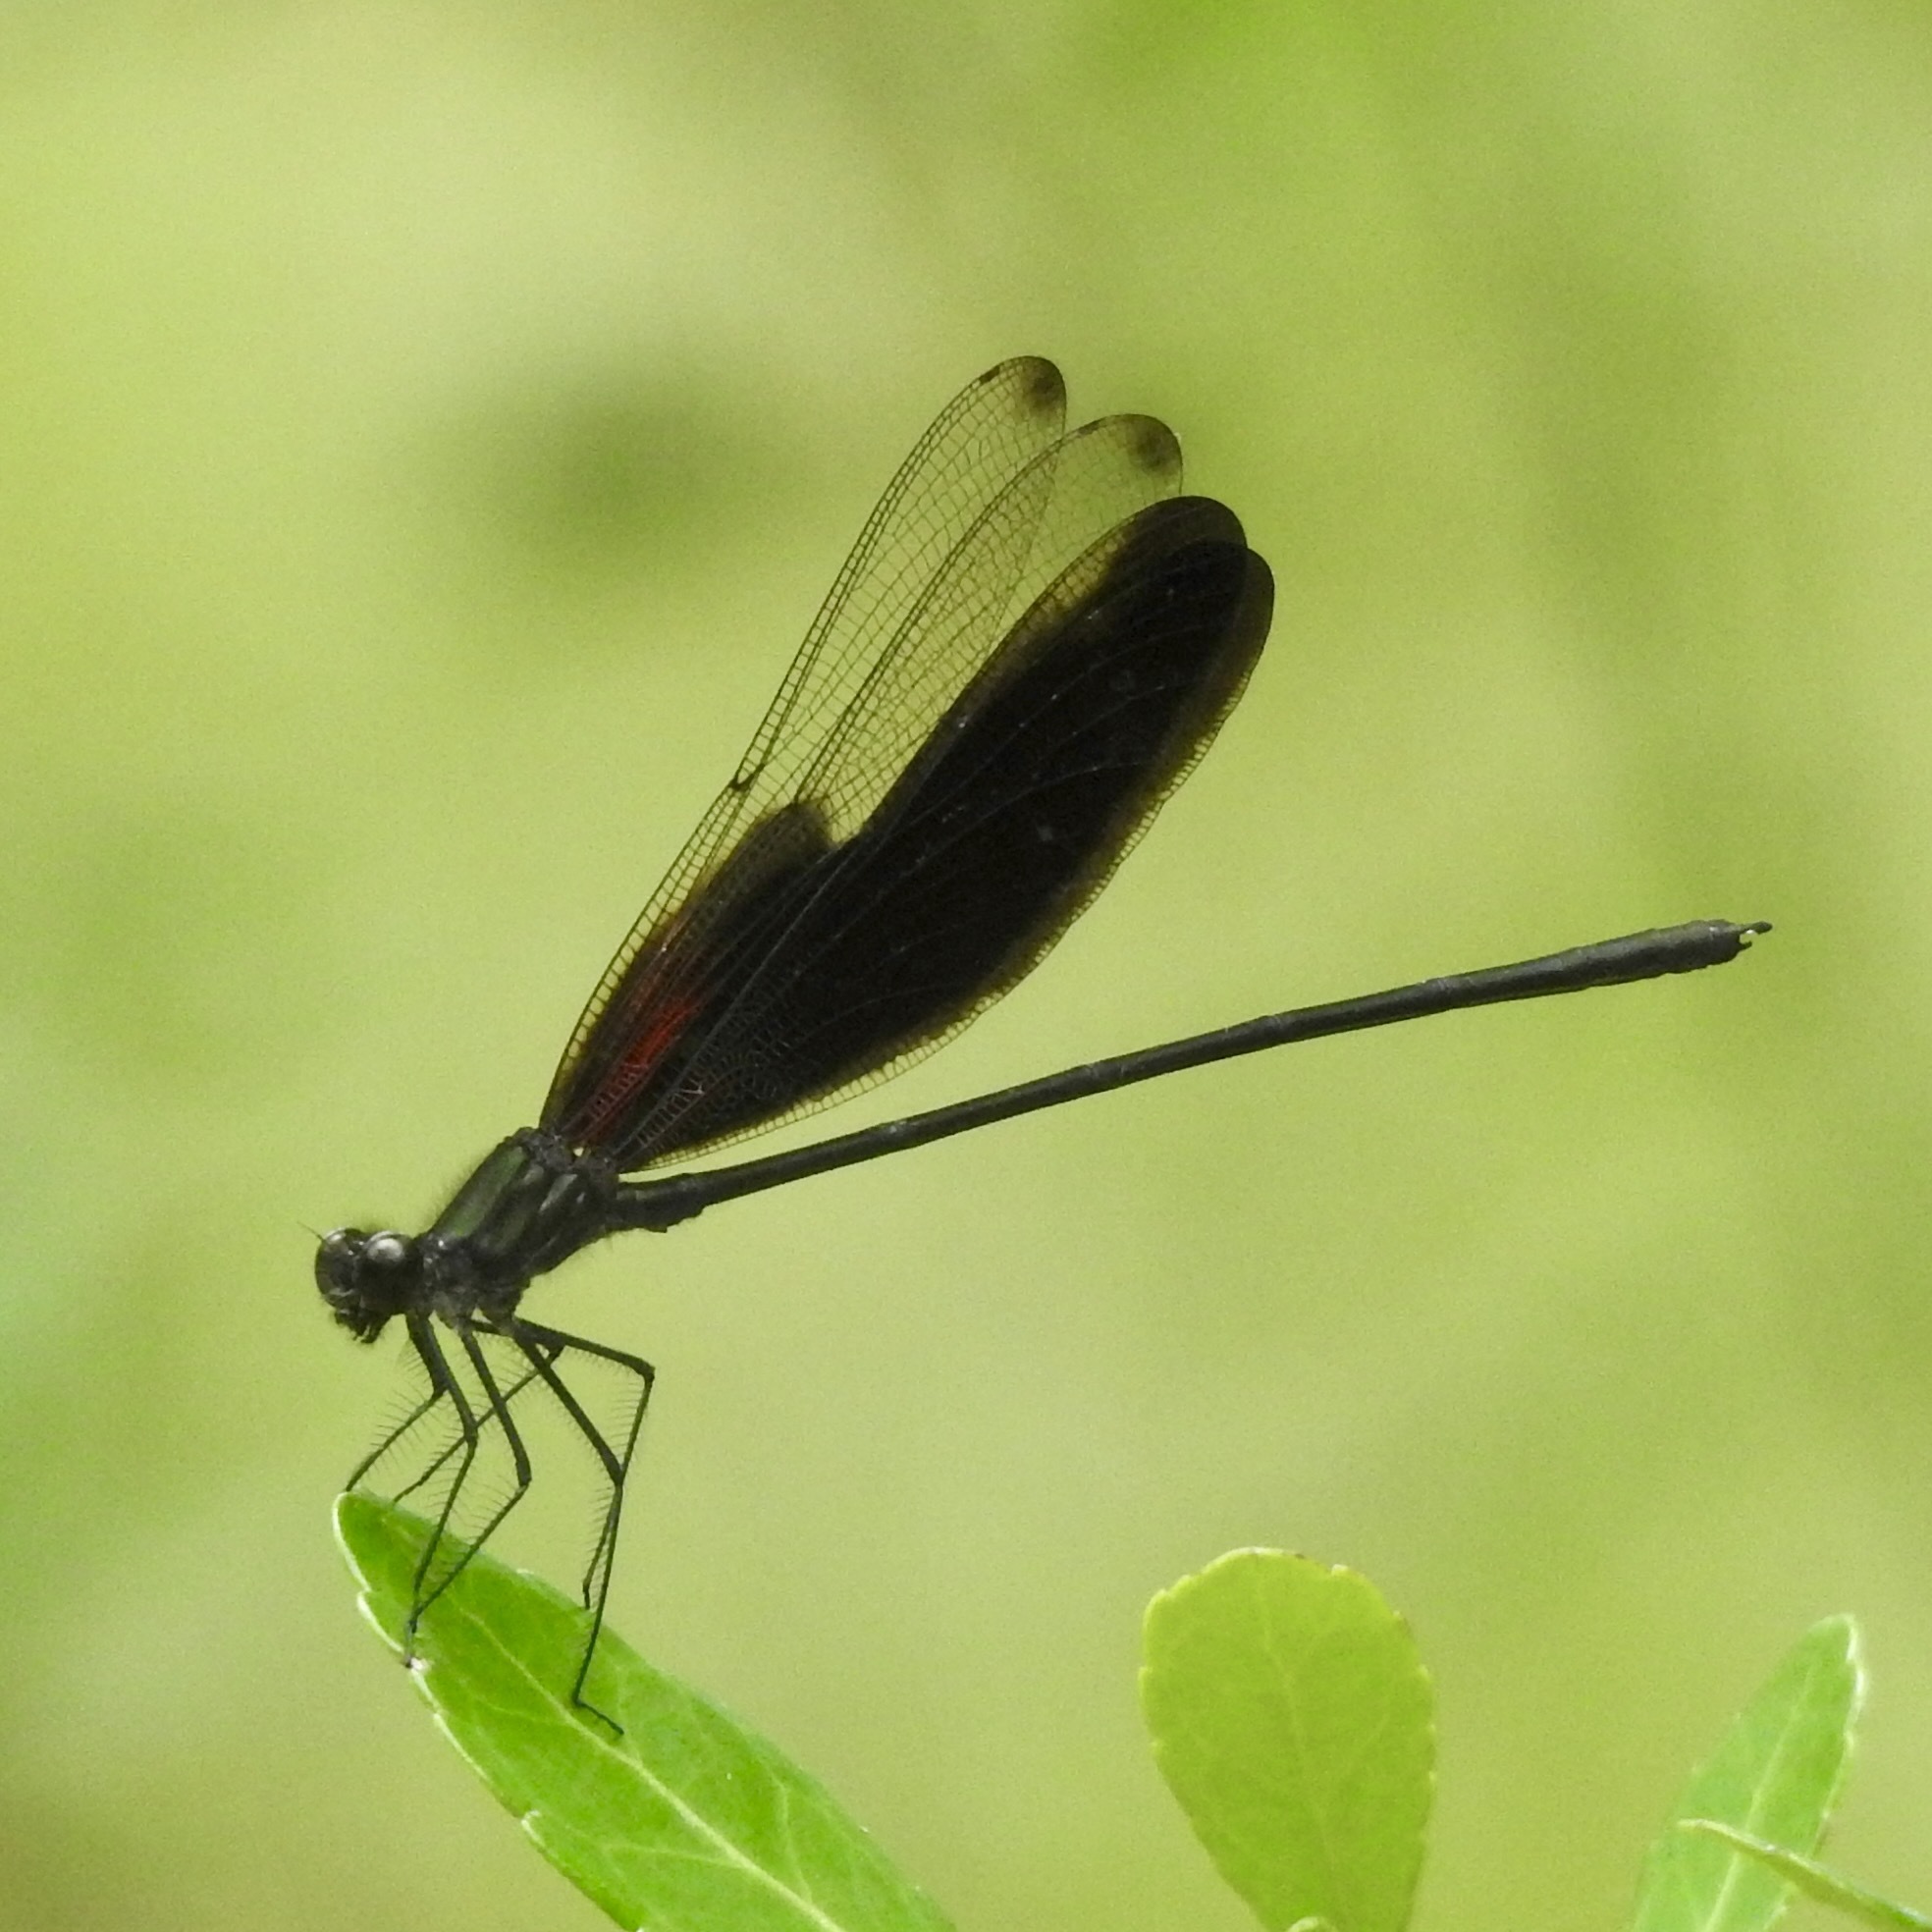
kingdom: Animalia
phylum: Arthropoda
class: Insecta
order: Odonata
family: Calopterygidae
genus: Hetaerina
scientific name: Hetaerina titia
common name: Smoky rubyspot
